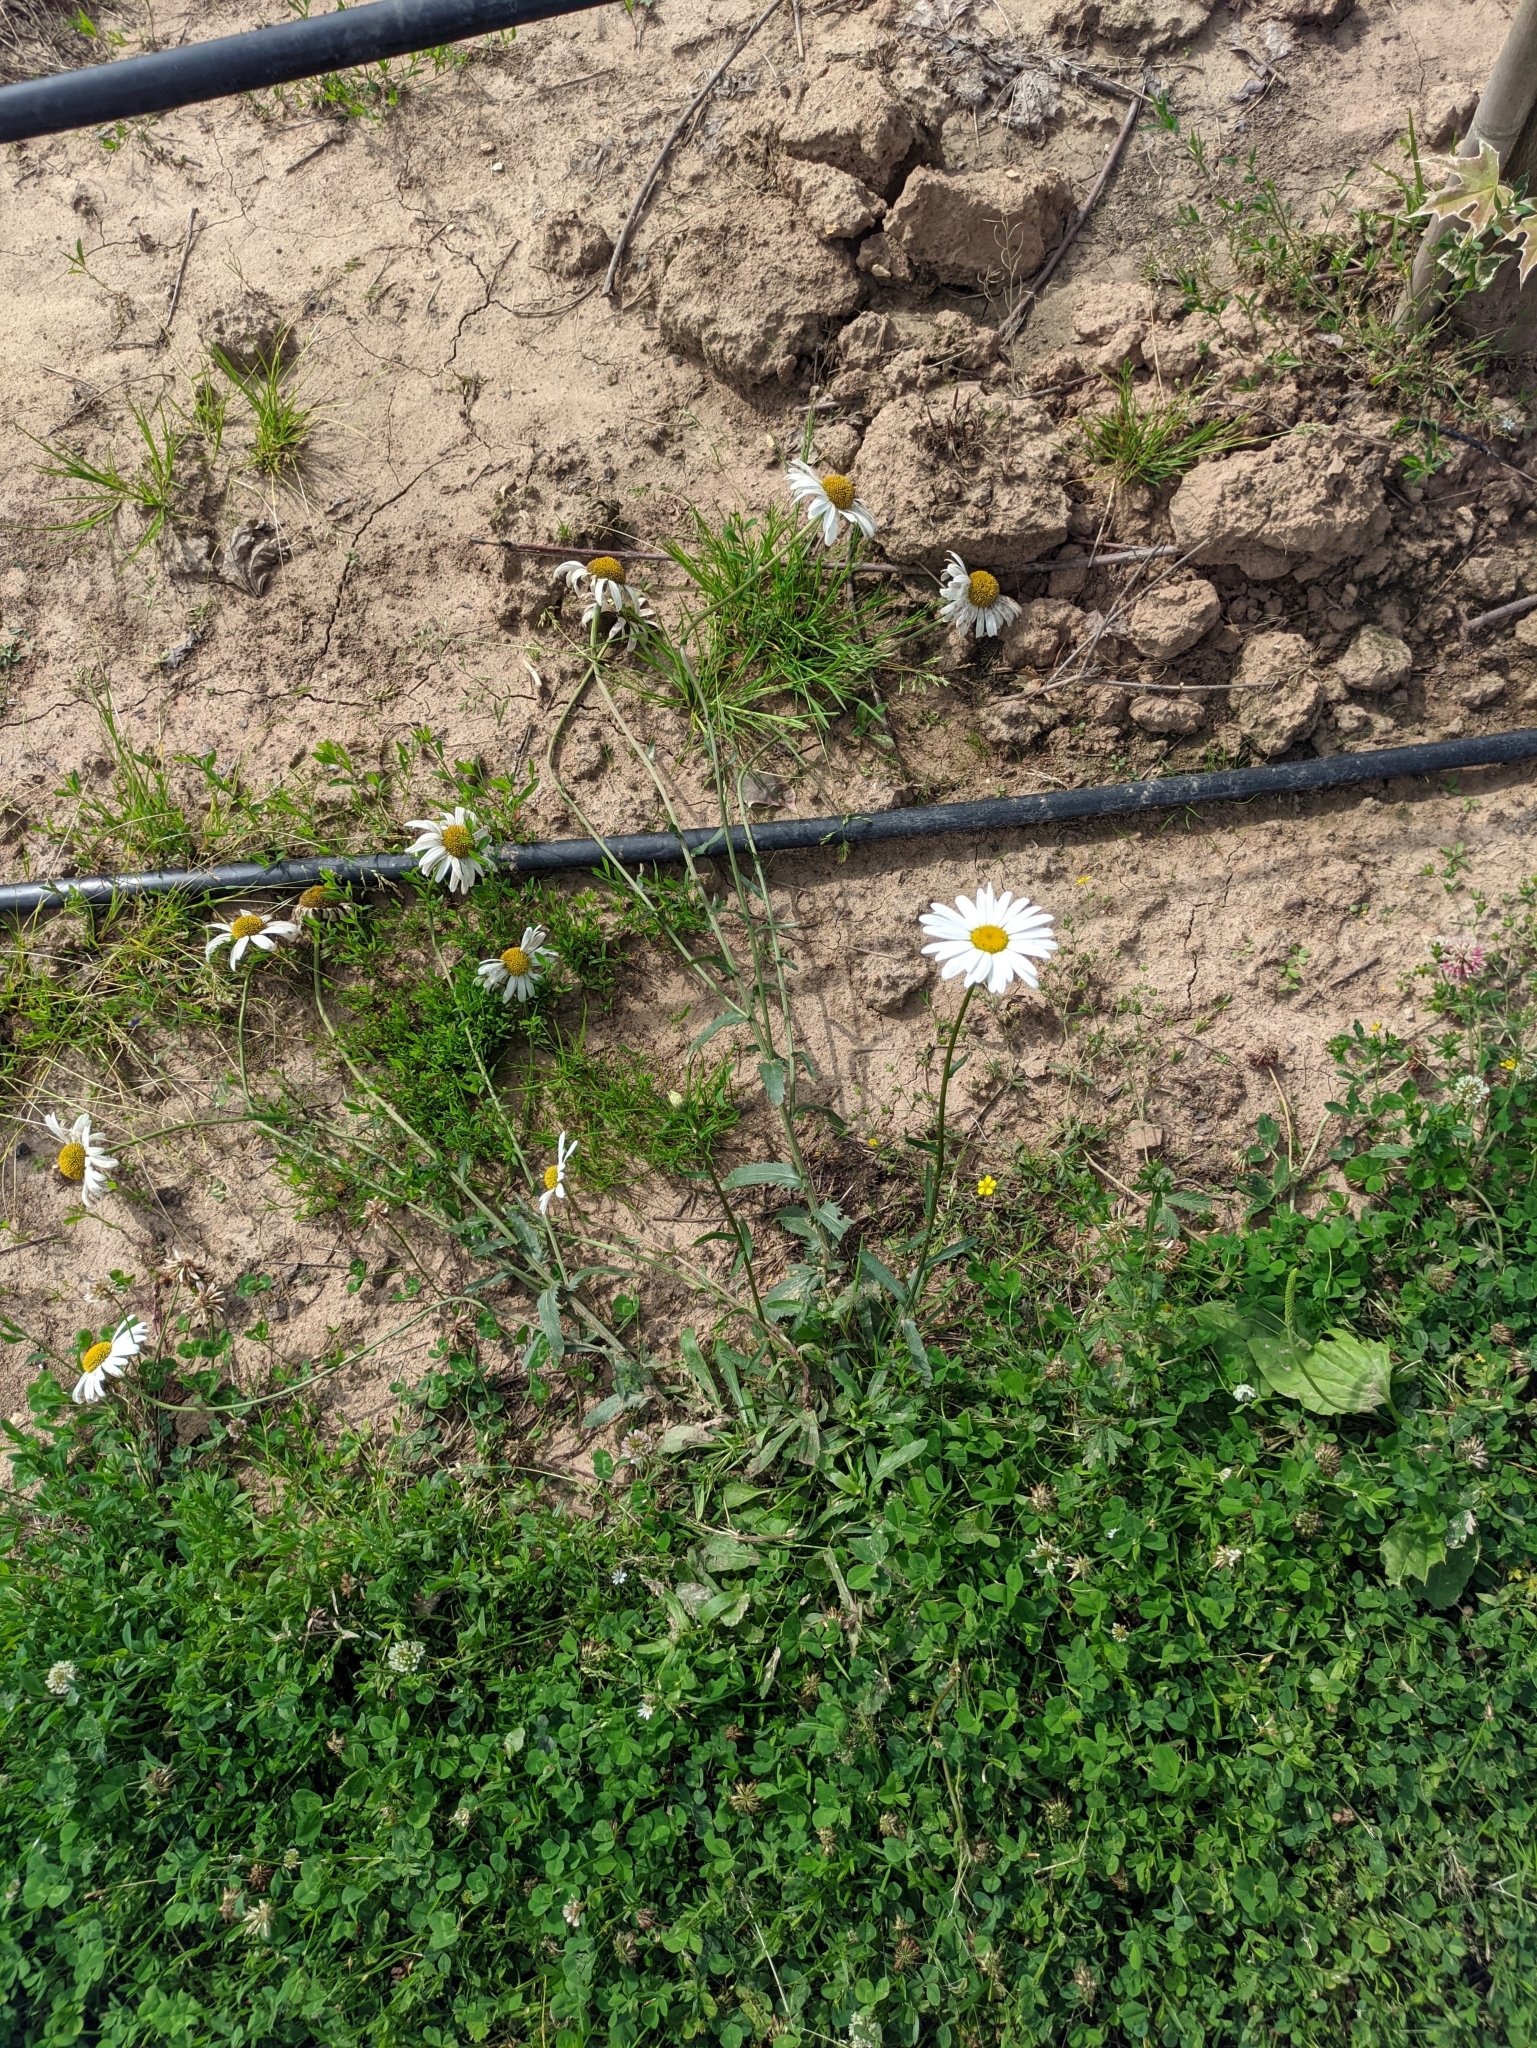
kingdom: Plantae
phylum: Tracheophyta
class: Magnoliopsida
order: Asterales
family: Asteraceae
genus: Leucanthemum
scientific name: Leucanthemum vulgare
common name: Oxeye daisy
